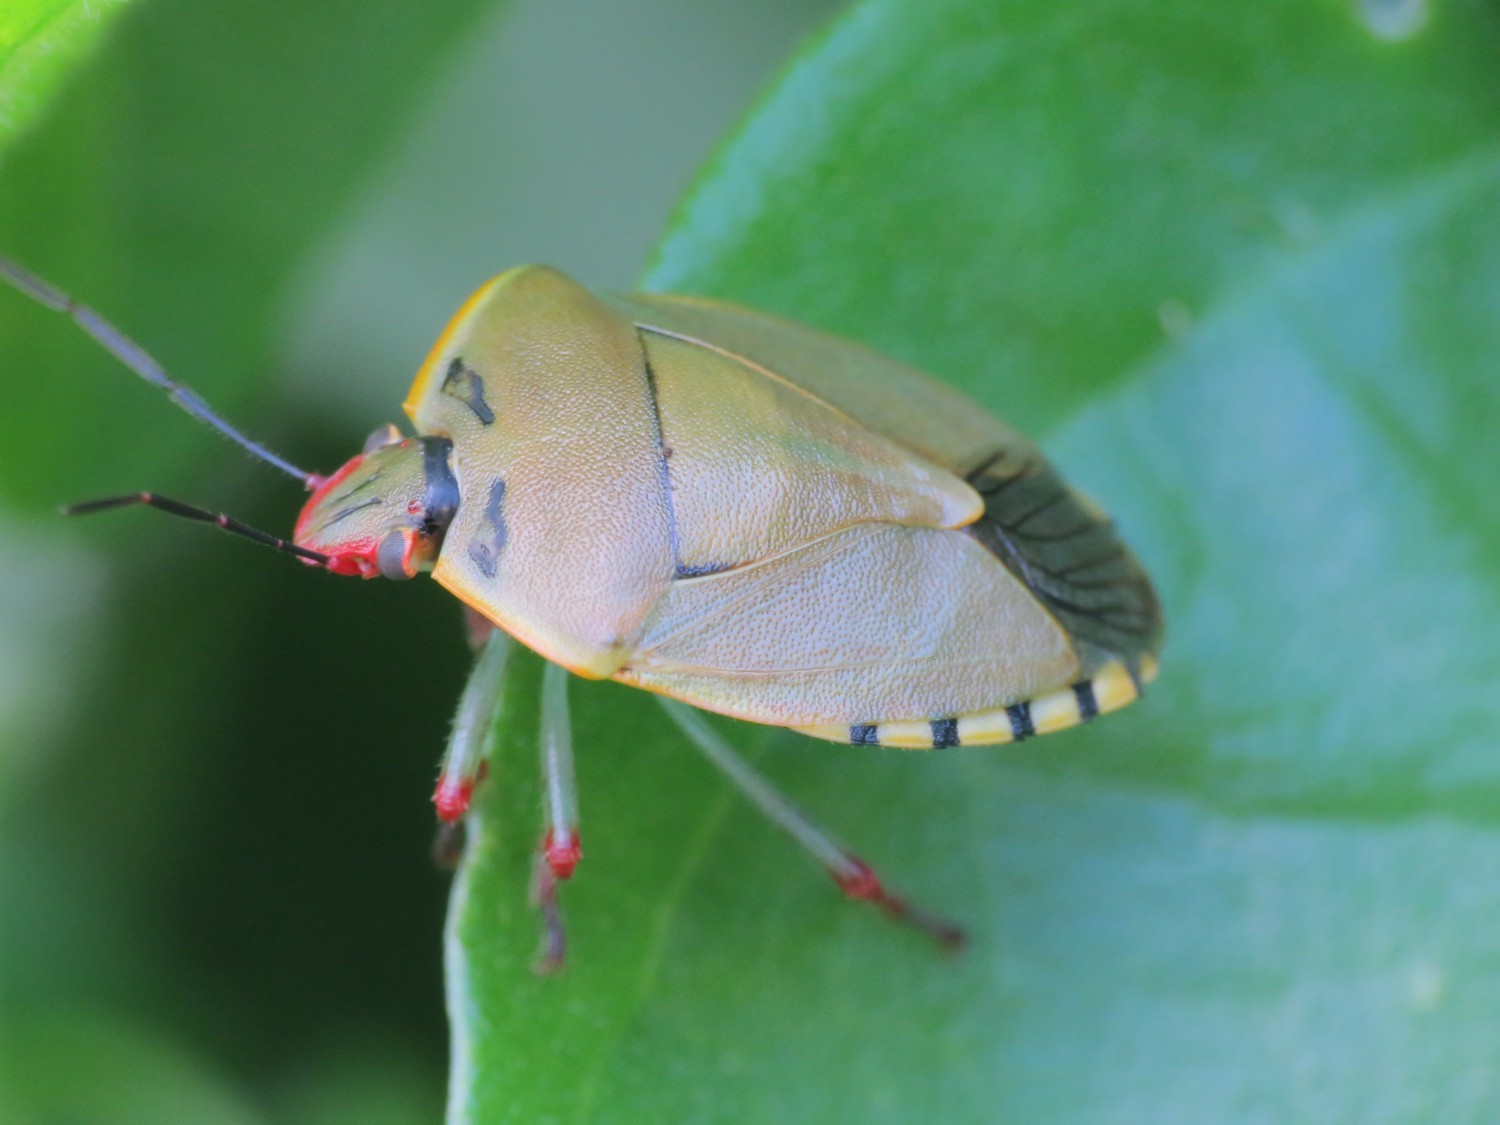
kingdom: Animalia
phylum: Arthropoda
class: Insecta
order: Hemiptera
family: Pentatomidae
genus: Chinavia
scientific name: Chinavia erythrocnemis
